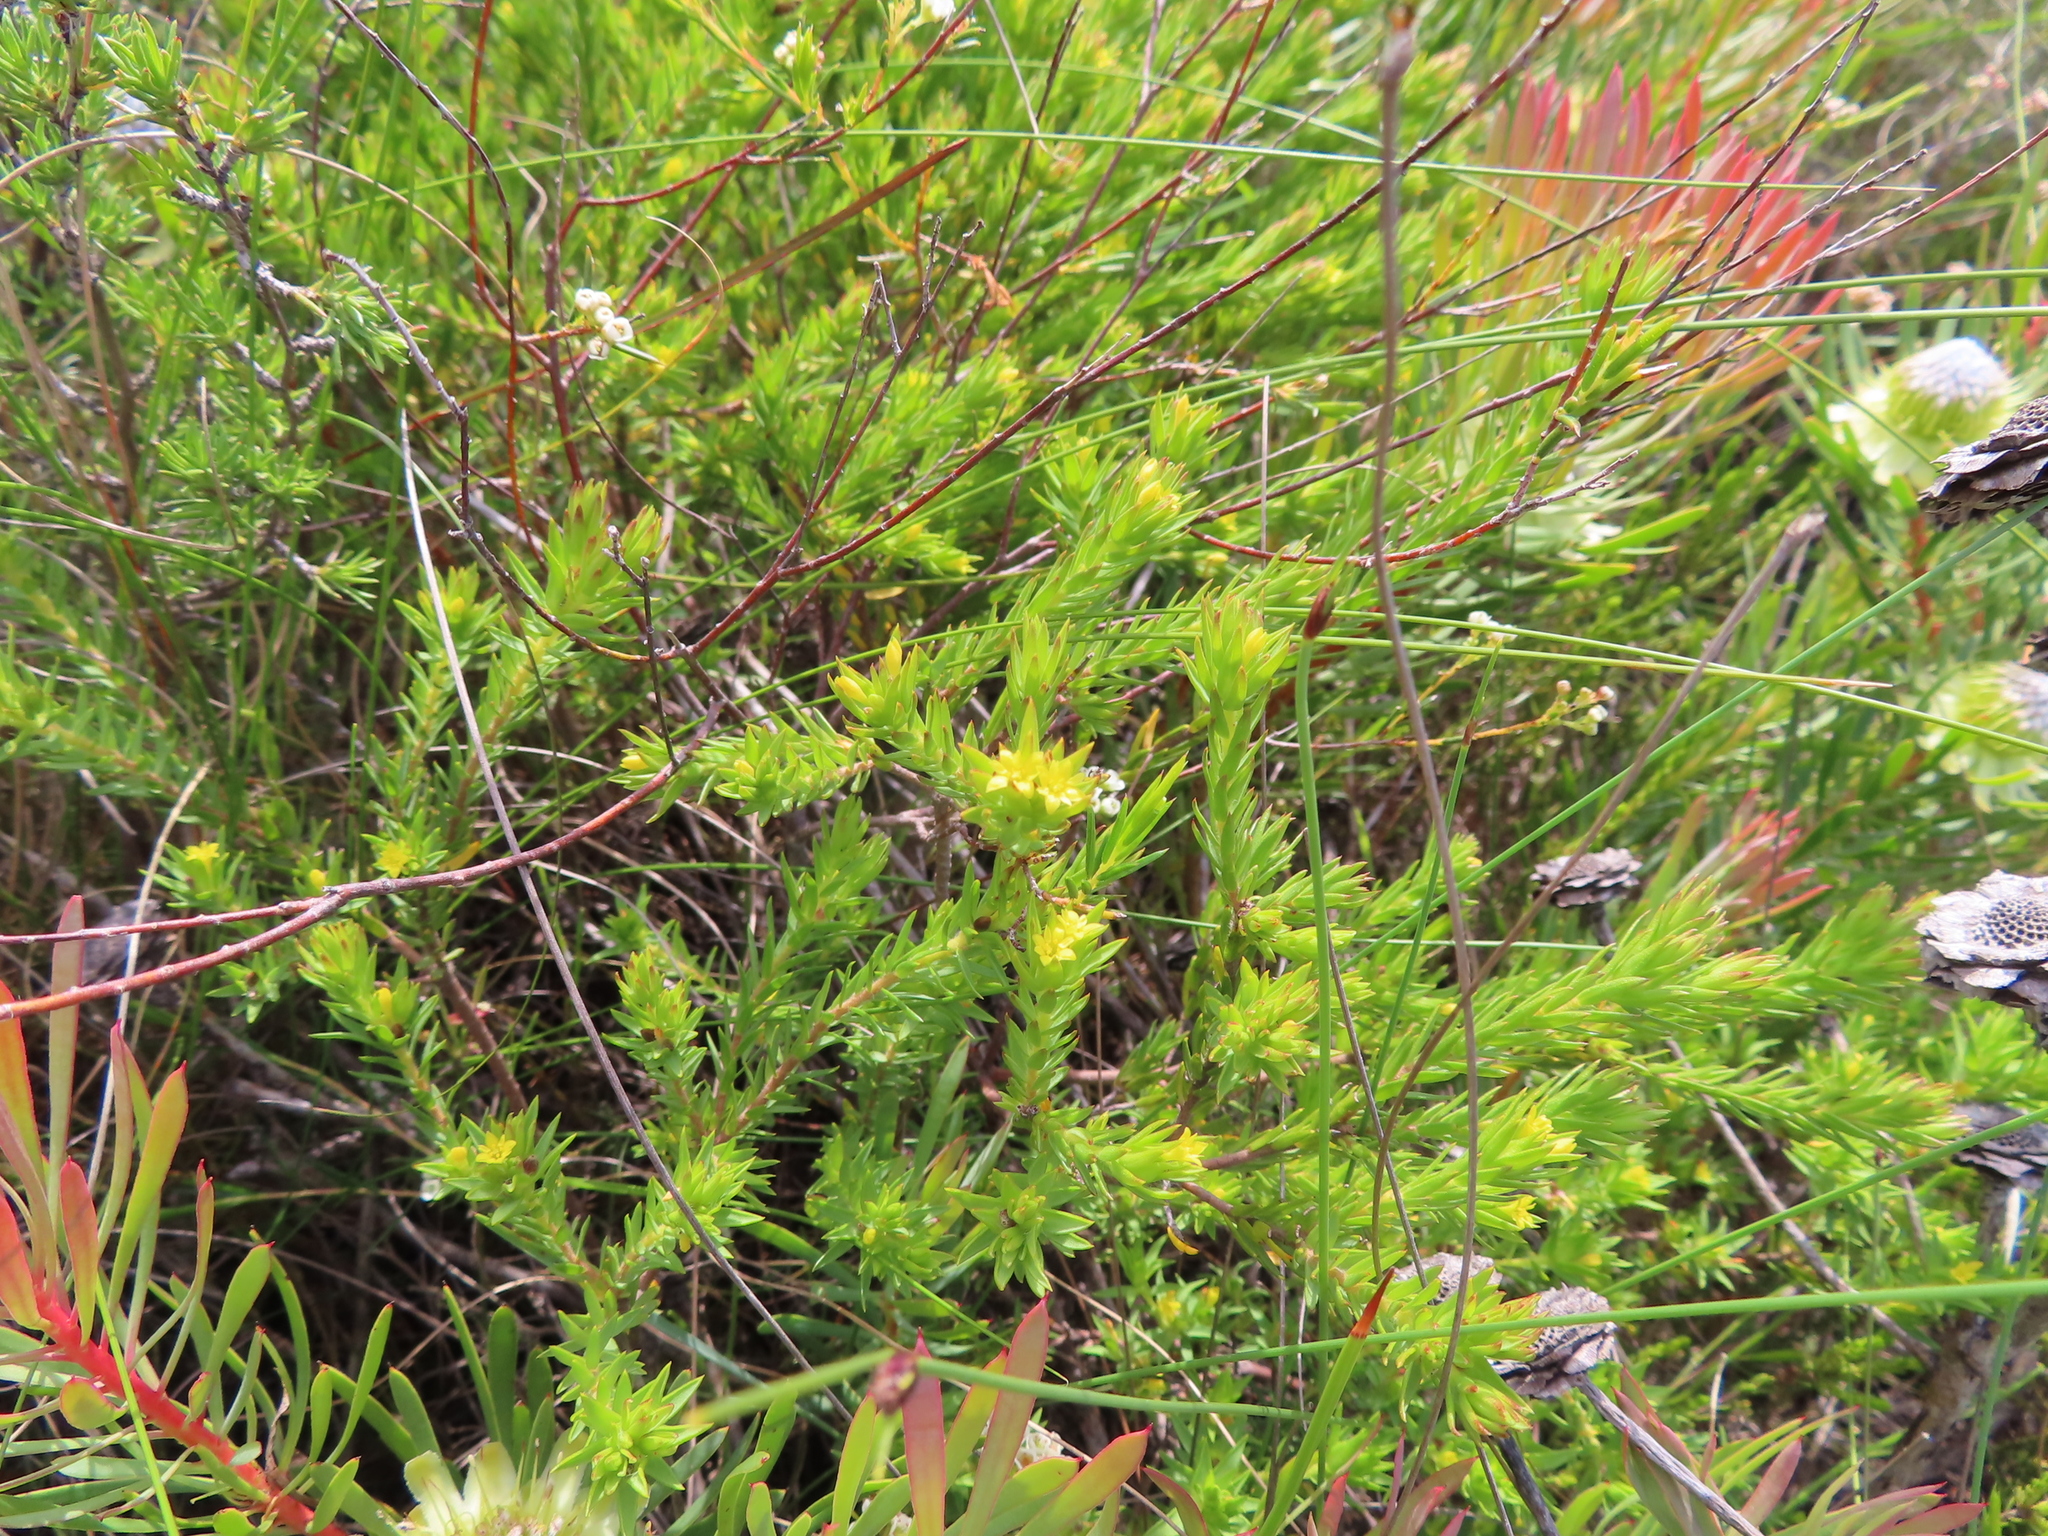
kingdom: Plantae
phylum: Tracheophyta
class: Magnoliopsida
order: Malvales
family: Thymelaeaceae
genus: Gnidia
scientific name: Gnidia juniperifolia
